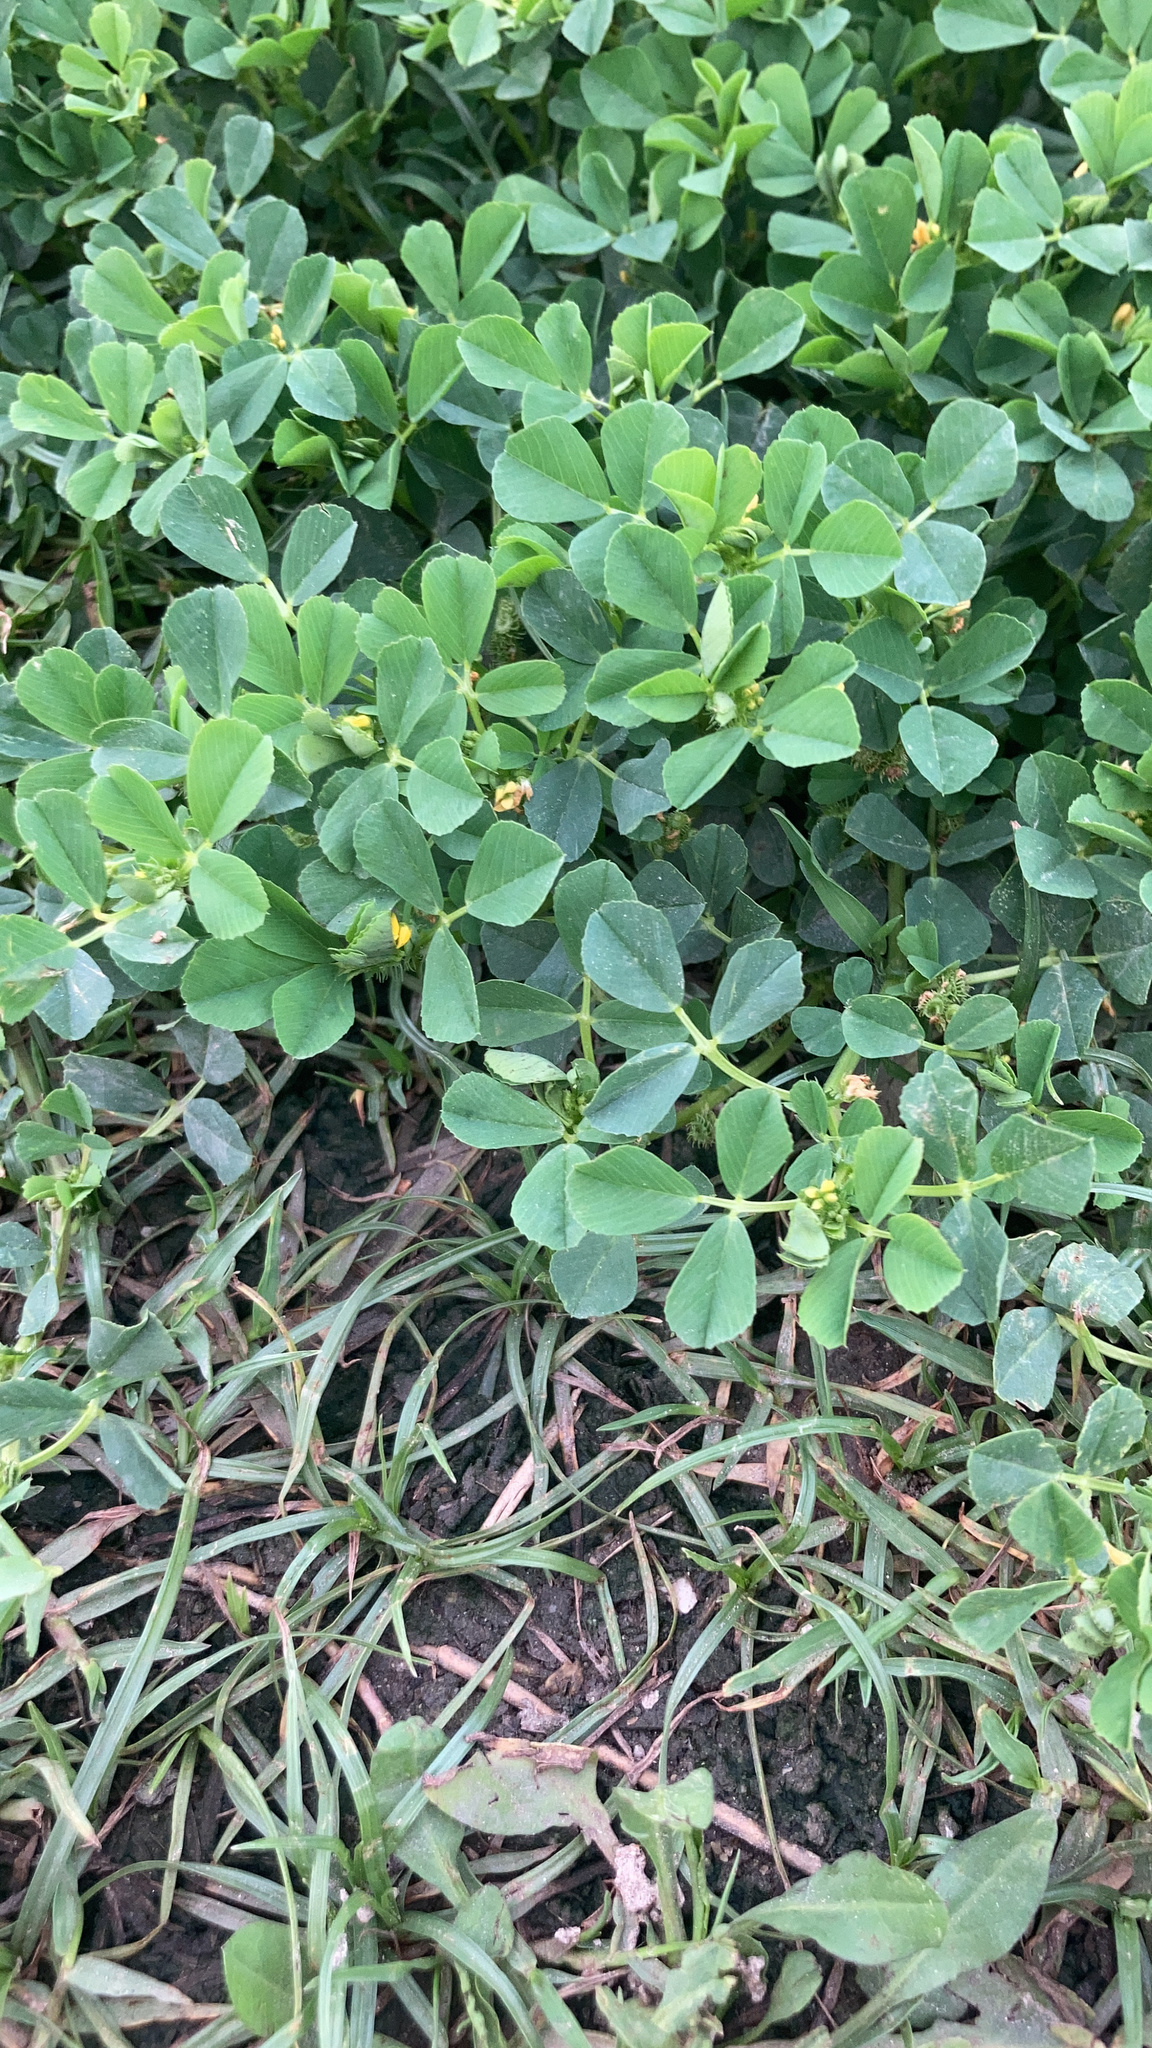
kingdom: Plantae
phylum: Tracheophyta
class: Magnoliopsida
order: Fabales
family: Fabaceae
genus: Medicago
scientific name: Medicago polymorpha
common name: Burclover
